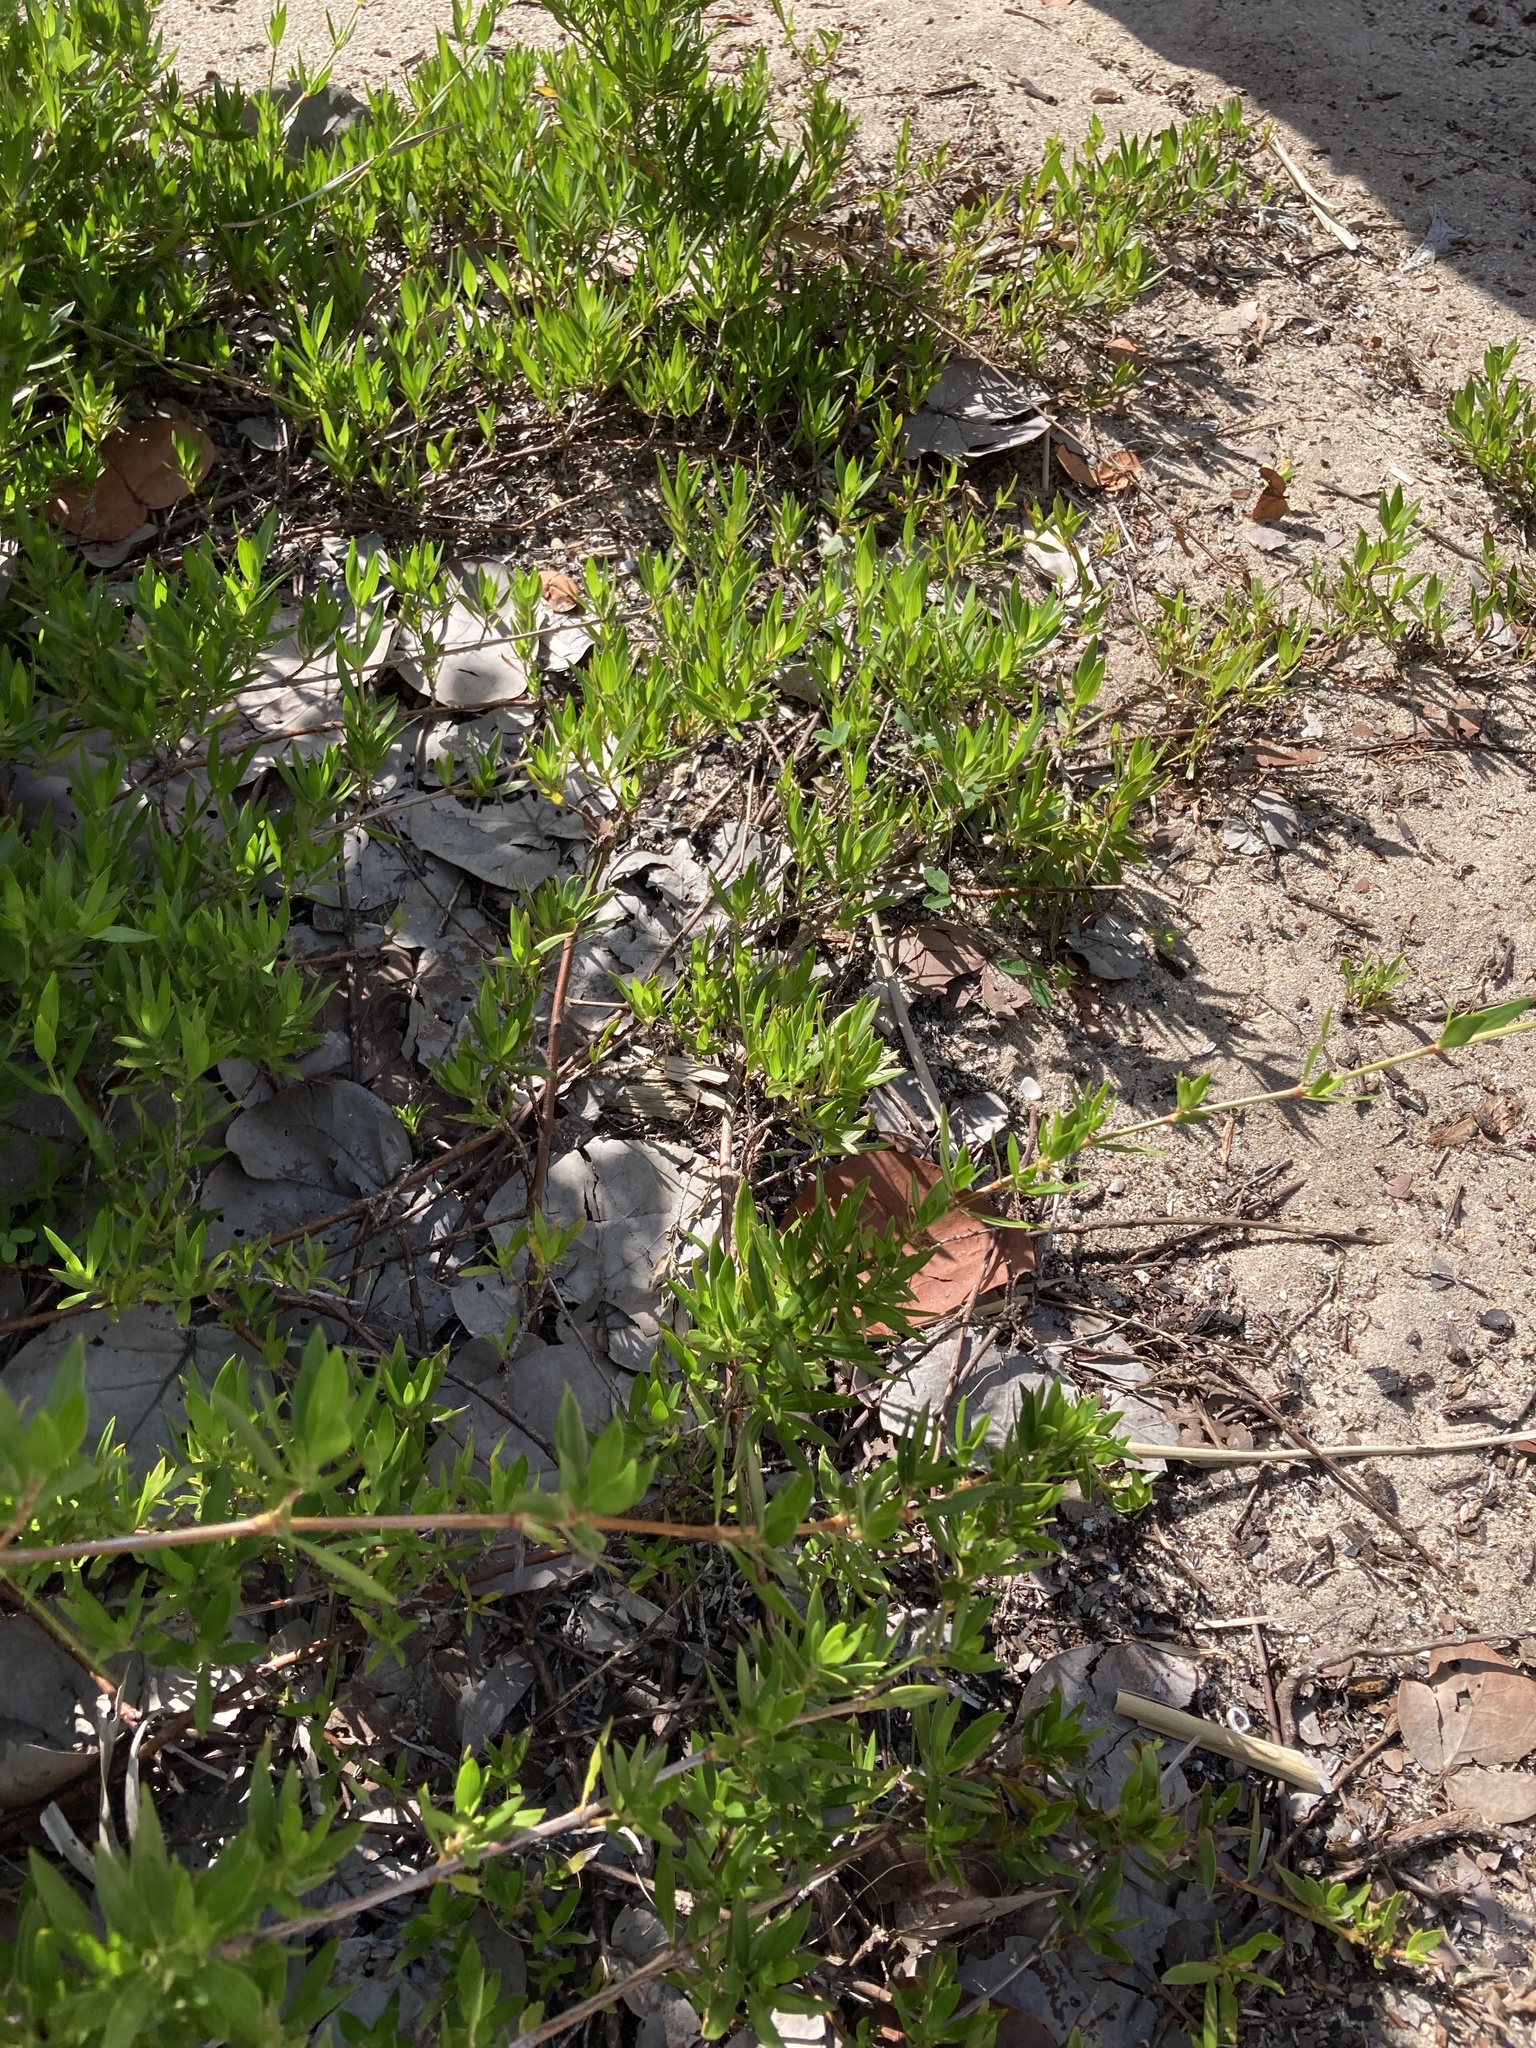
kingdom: Plantae
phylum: Tracheophyta
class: Magnoliopsida
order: Gentianales
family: Rubiaceae
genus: Ernodea
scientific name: Ernodea littoralis
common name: Beach creeper
